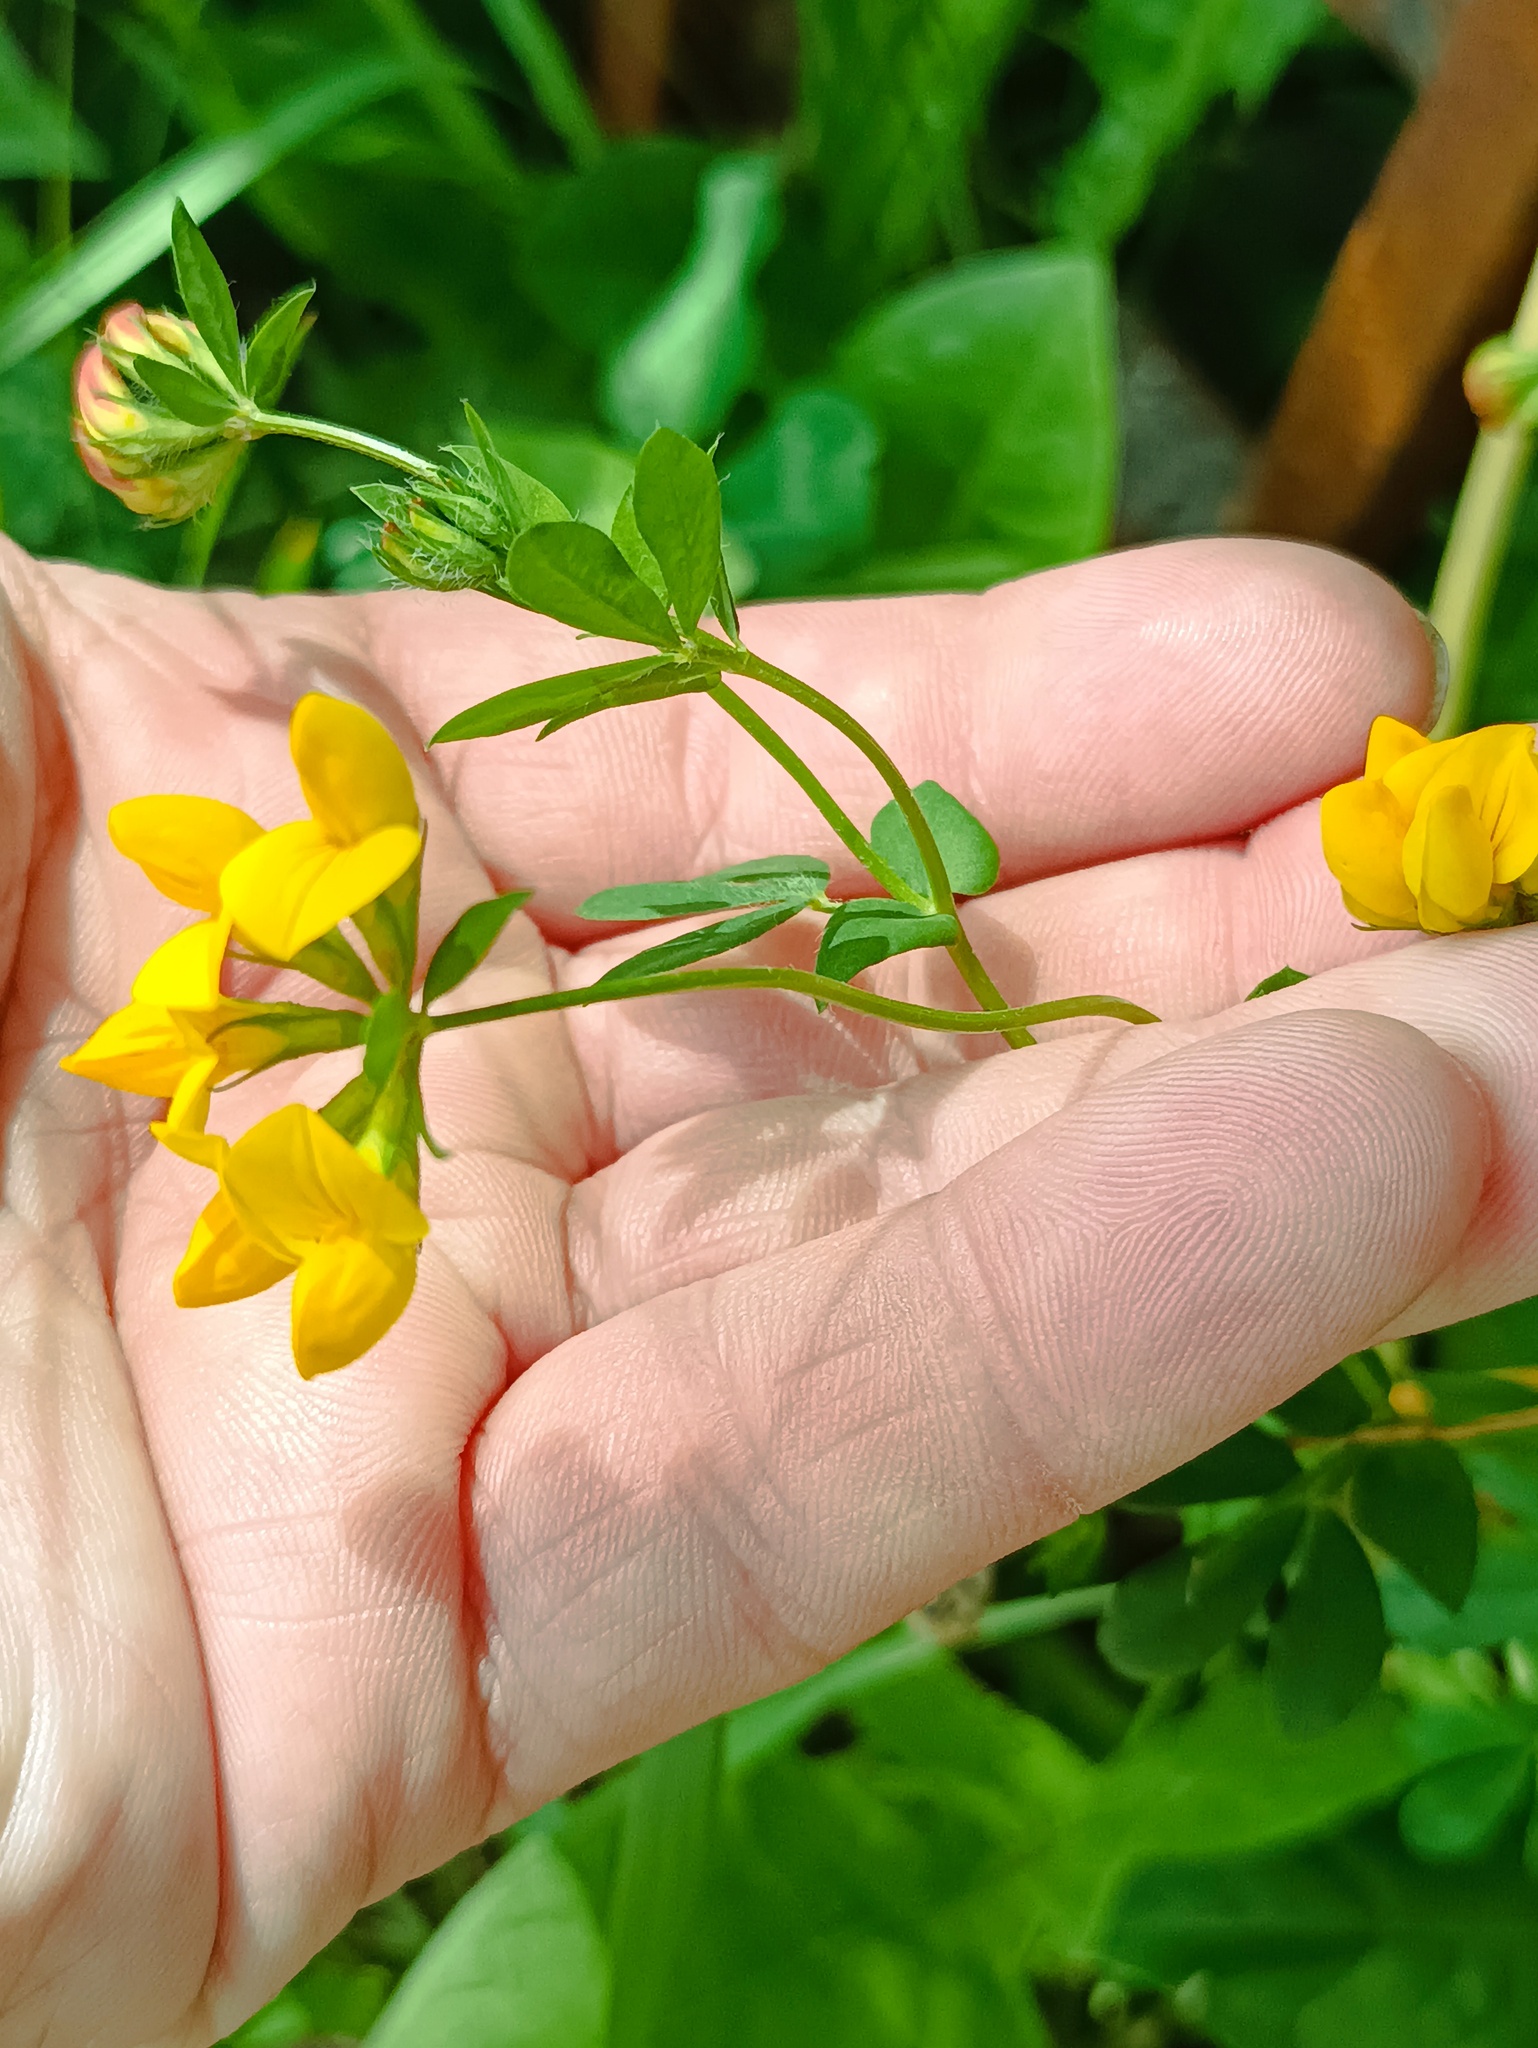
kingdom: Plantae
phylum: Tracheophyta
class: Magnoliopsida
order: Fabales
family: Fabaceae
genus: Lotus
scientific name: Lotus corniculatus
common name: Common bird's-foot-trefoil
